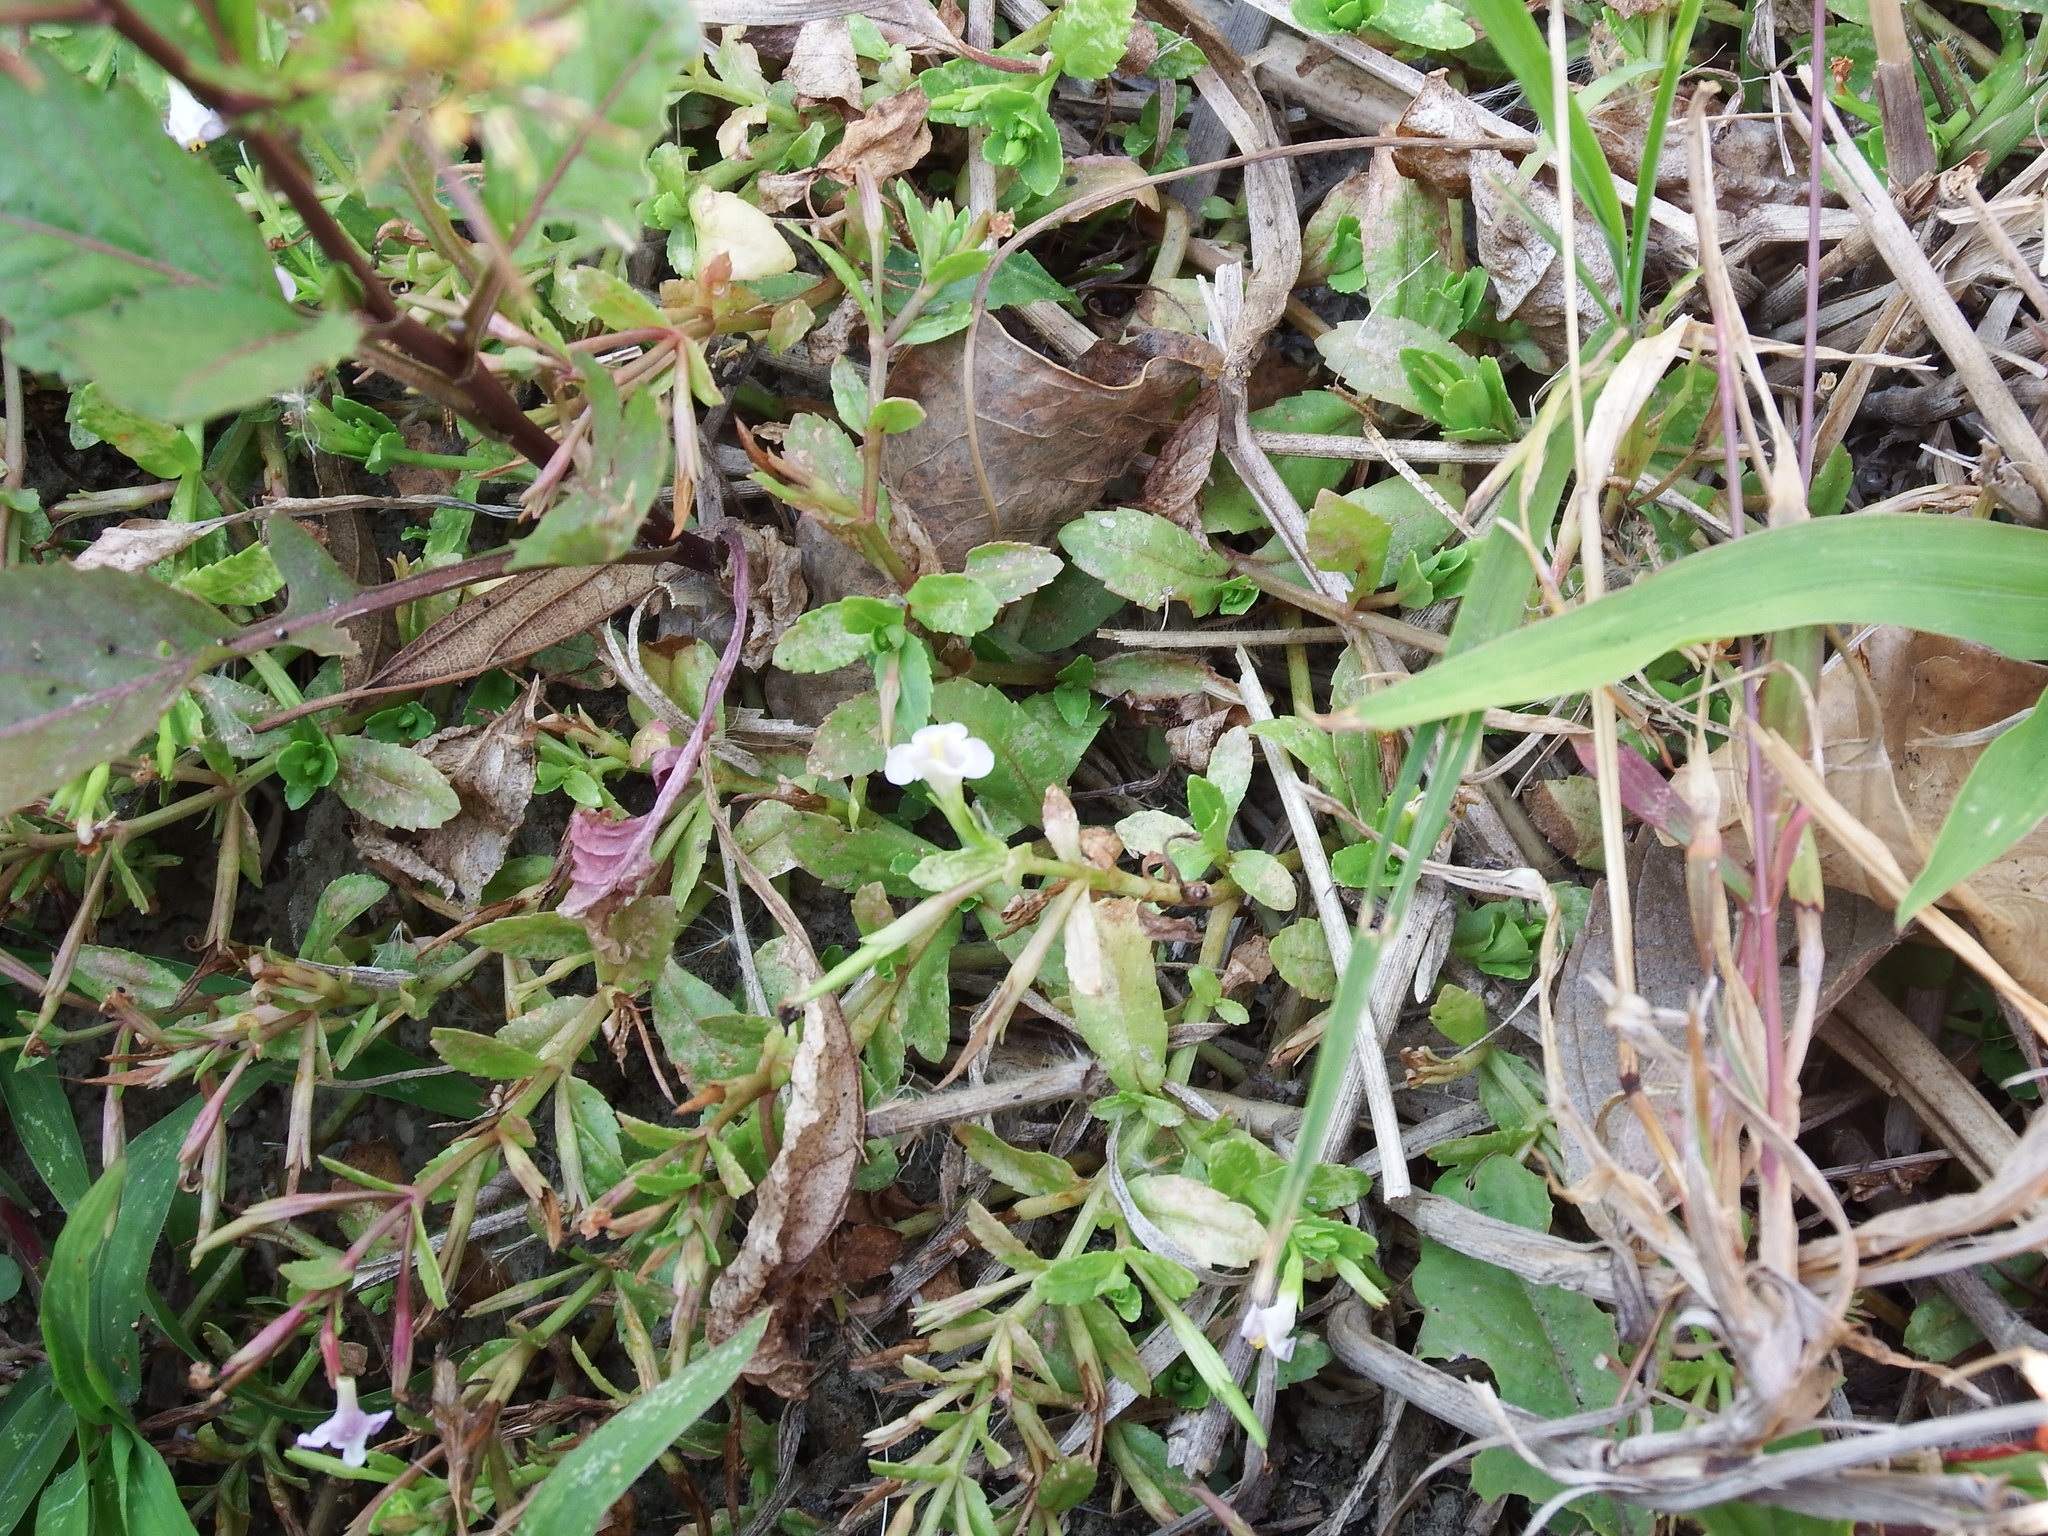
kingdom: Plantae
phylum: Tracheophyta
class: Magnoliopsida
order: Lamiales
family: Linderniaceae
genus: Bonnaya
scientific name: Bonnaya antipoda
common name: Sparrow false pimpernel
